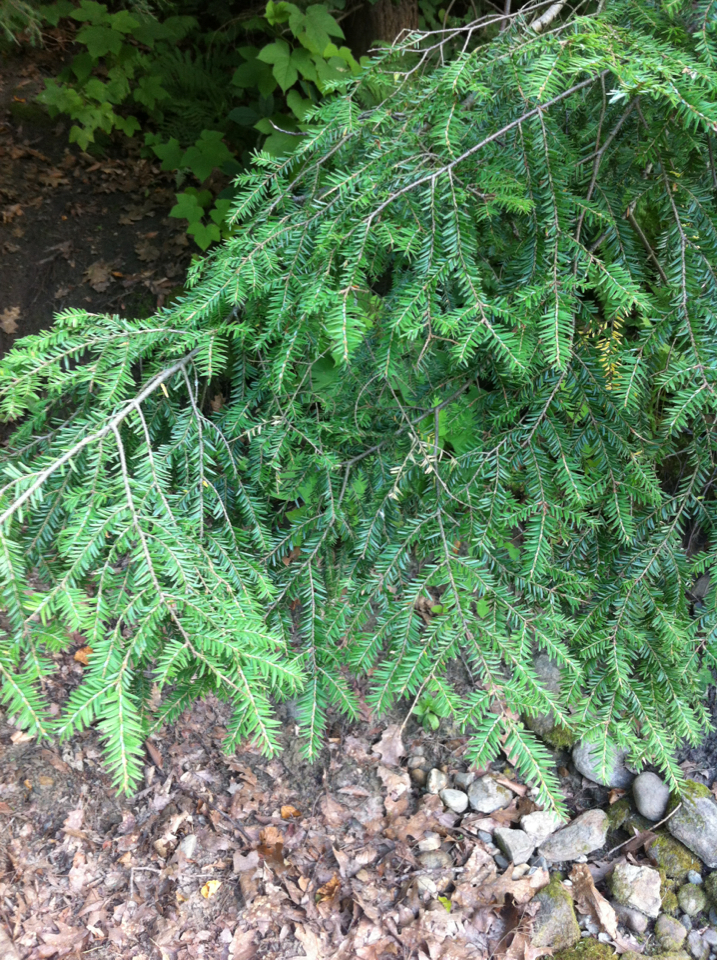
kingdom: Plantae
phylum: Tracheophyta
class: Pinopsida
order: Pinales
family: Pinaceae
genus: Tsuga
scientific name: Tsuga canadensis
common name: Eastern hemlock
